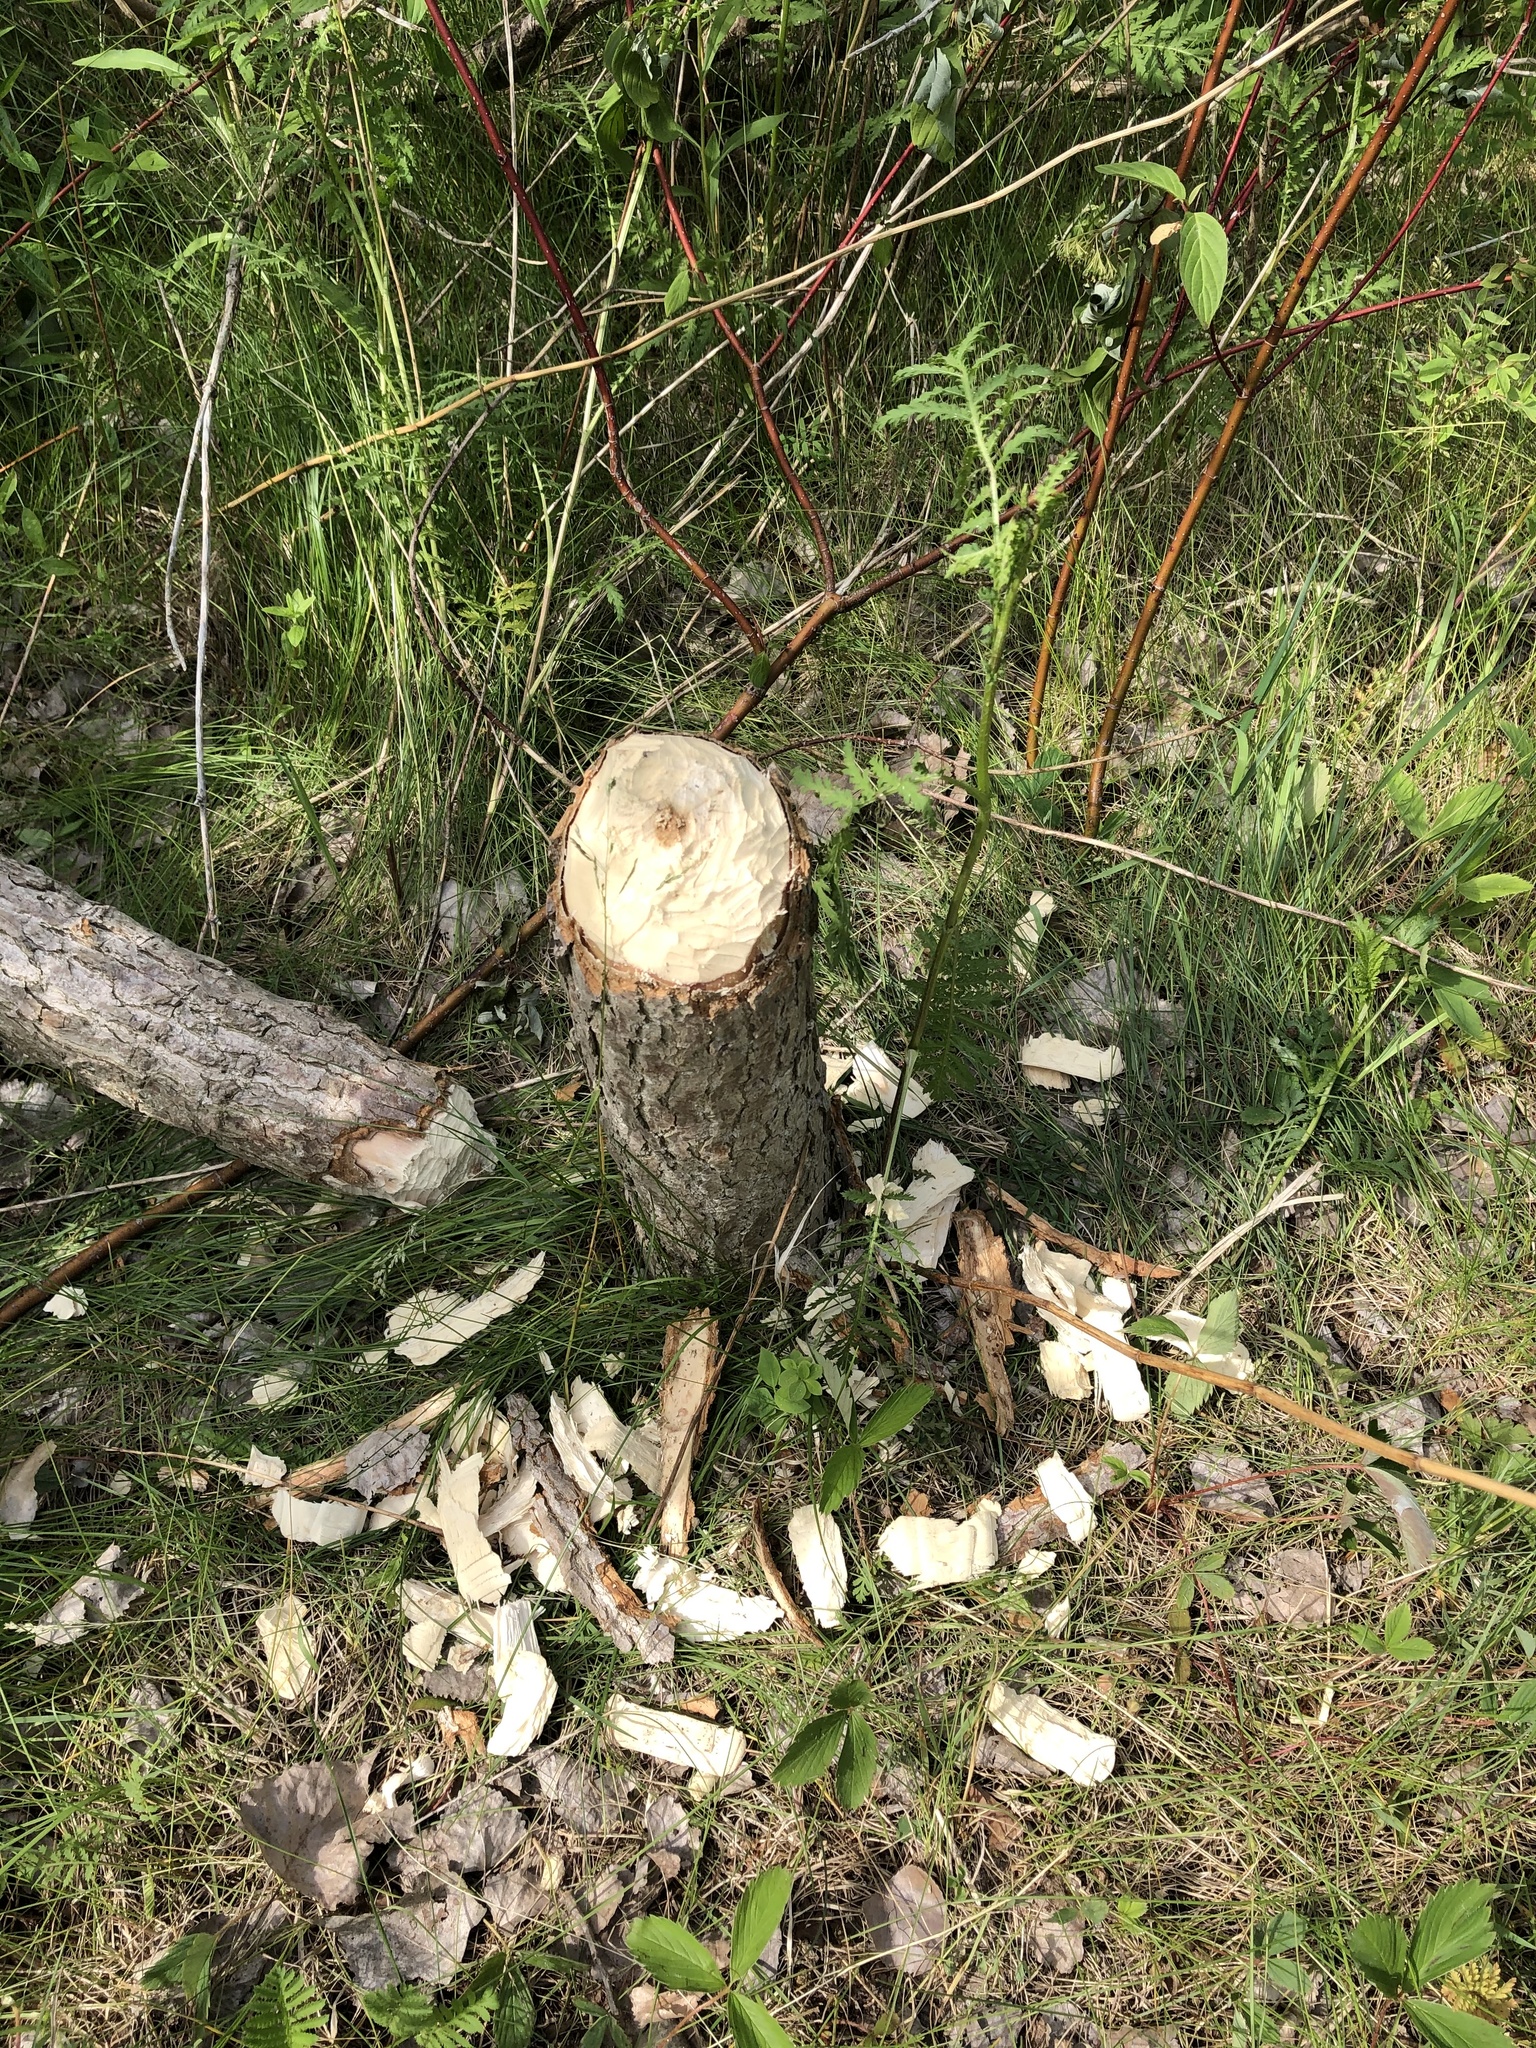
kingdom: Animalia
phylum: Chordata
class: Mammalia
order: Rodentia
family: Castoridae
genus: Castor
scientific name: Castor canadensis
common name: American beaver
